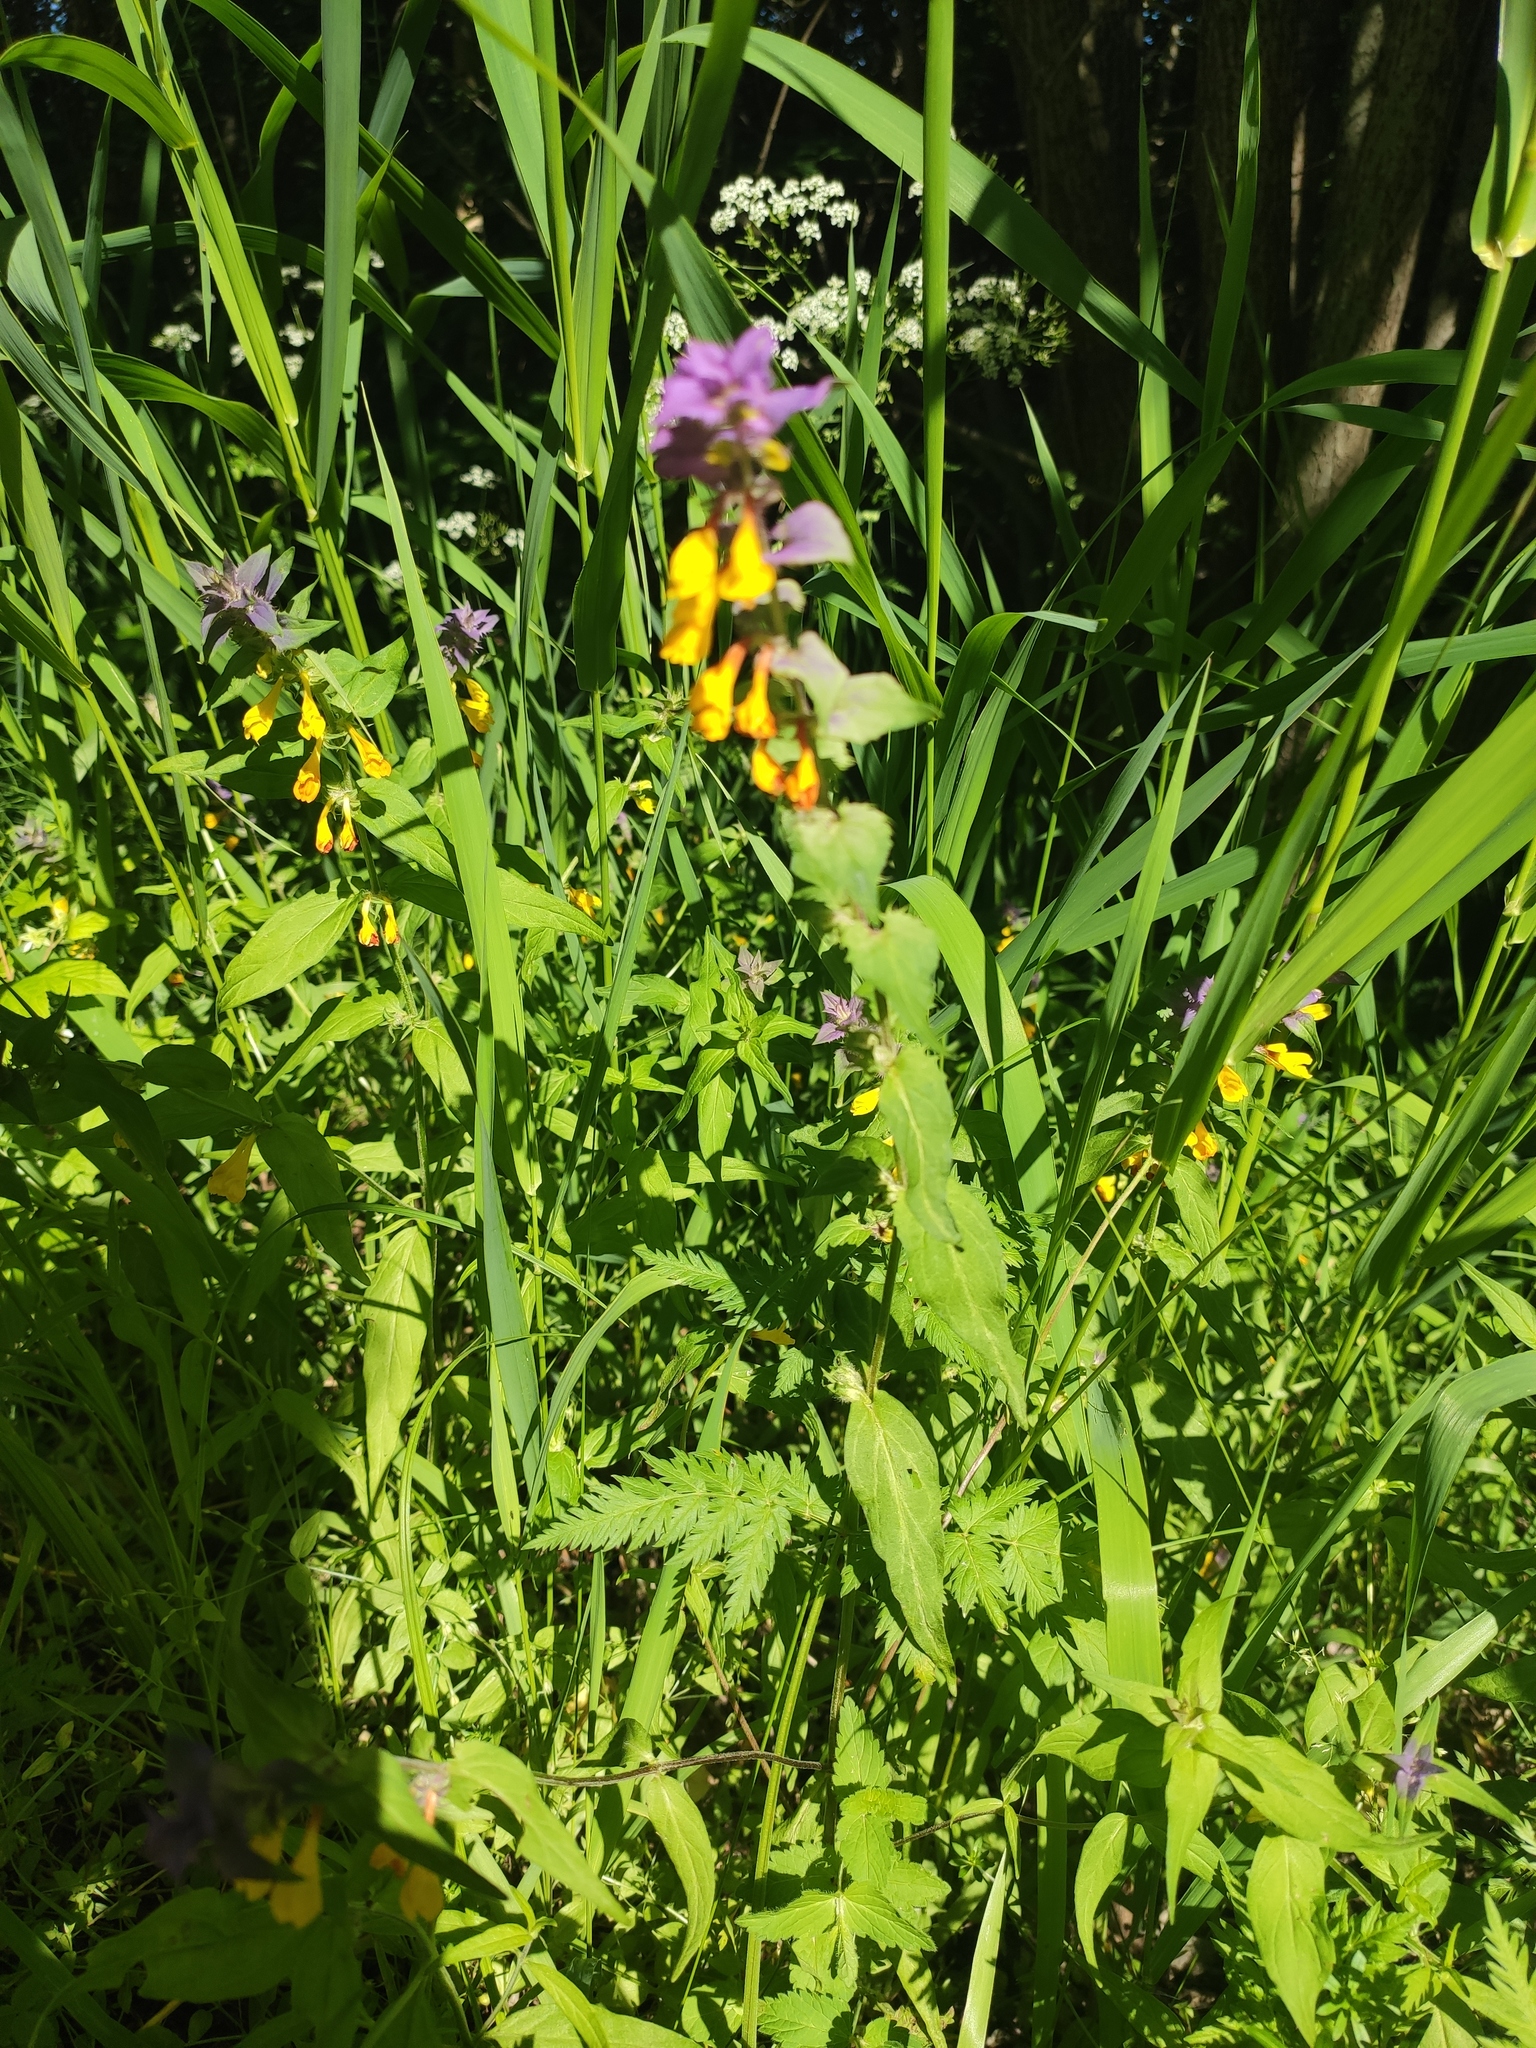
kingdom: Plantae
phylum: Tracheophyta
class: Magnoliopsida
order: Lamiales
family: Orobanchaceae
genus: Melampyrum
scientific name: Melampyrum nemorosum
